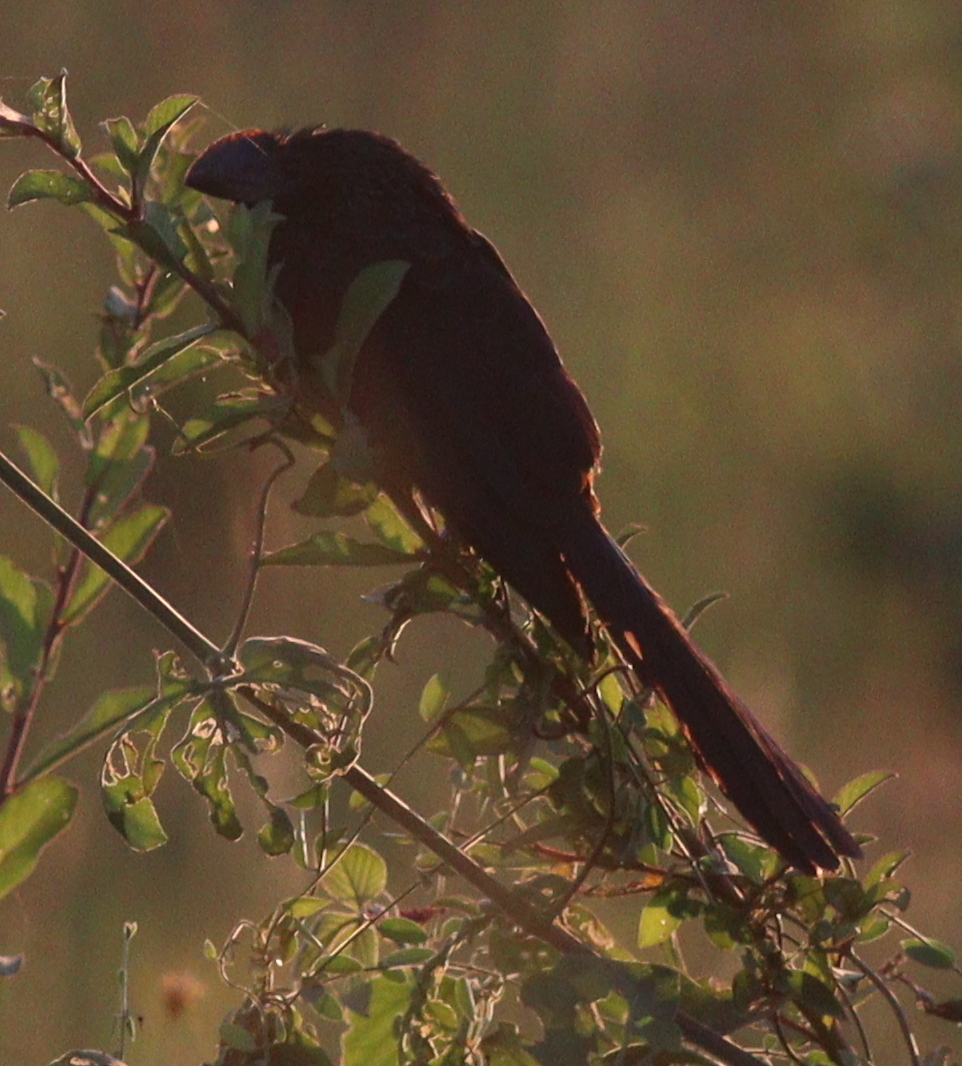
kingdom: Animalia
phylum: Chordata
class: Aves
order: Cuculiformes
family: Cuculidae
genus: Crotophaga
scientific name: Crotophaga ani
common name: Smooth-billed ani
